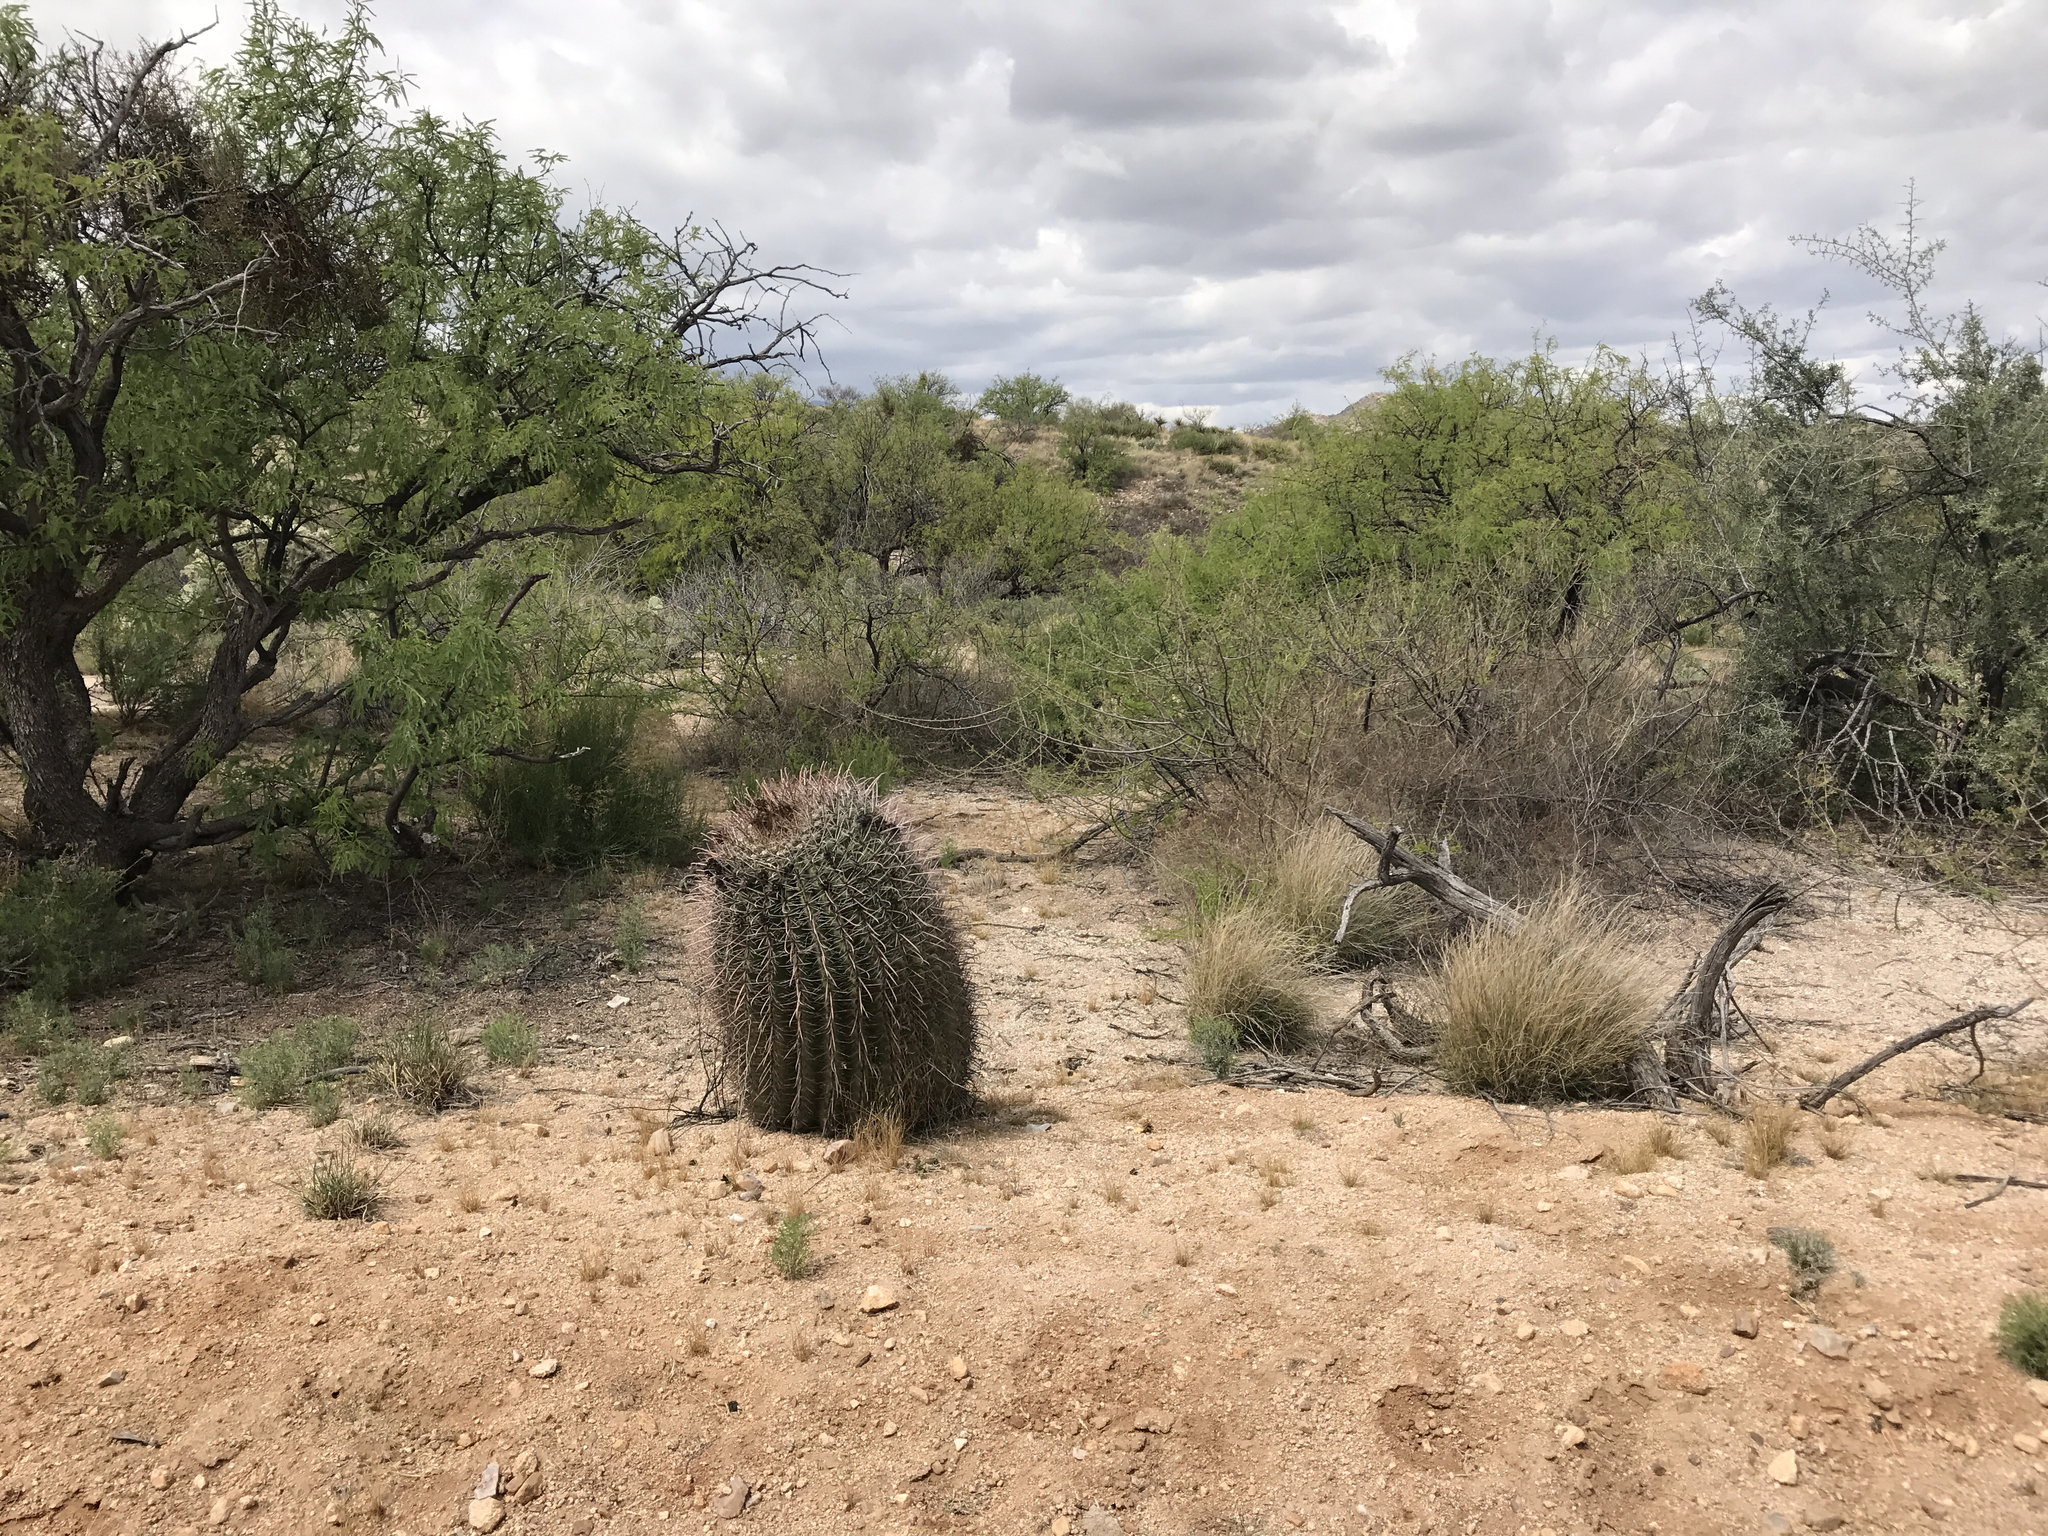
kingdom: Plantae
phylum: Tracheophyta
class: Magnoliopsida
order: Caryophyllales
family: Cactaceae
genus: Ferocactus
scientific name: Ferocactus wislizeni
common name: Candy barrel cactus
